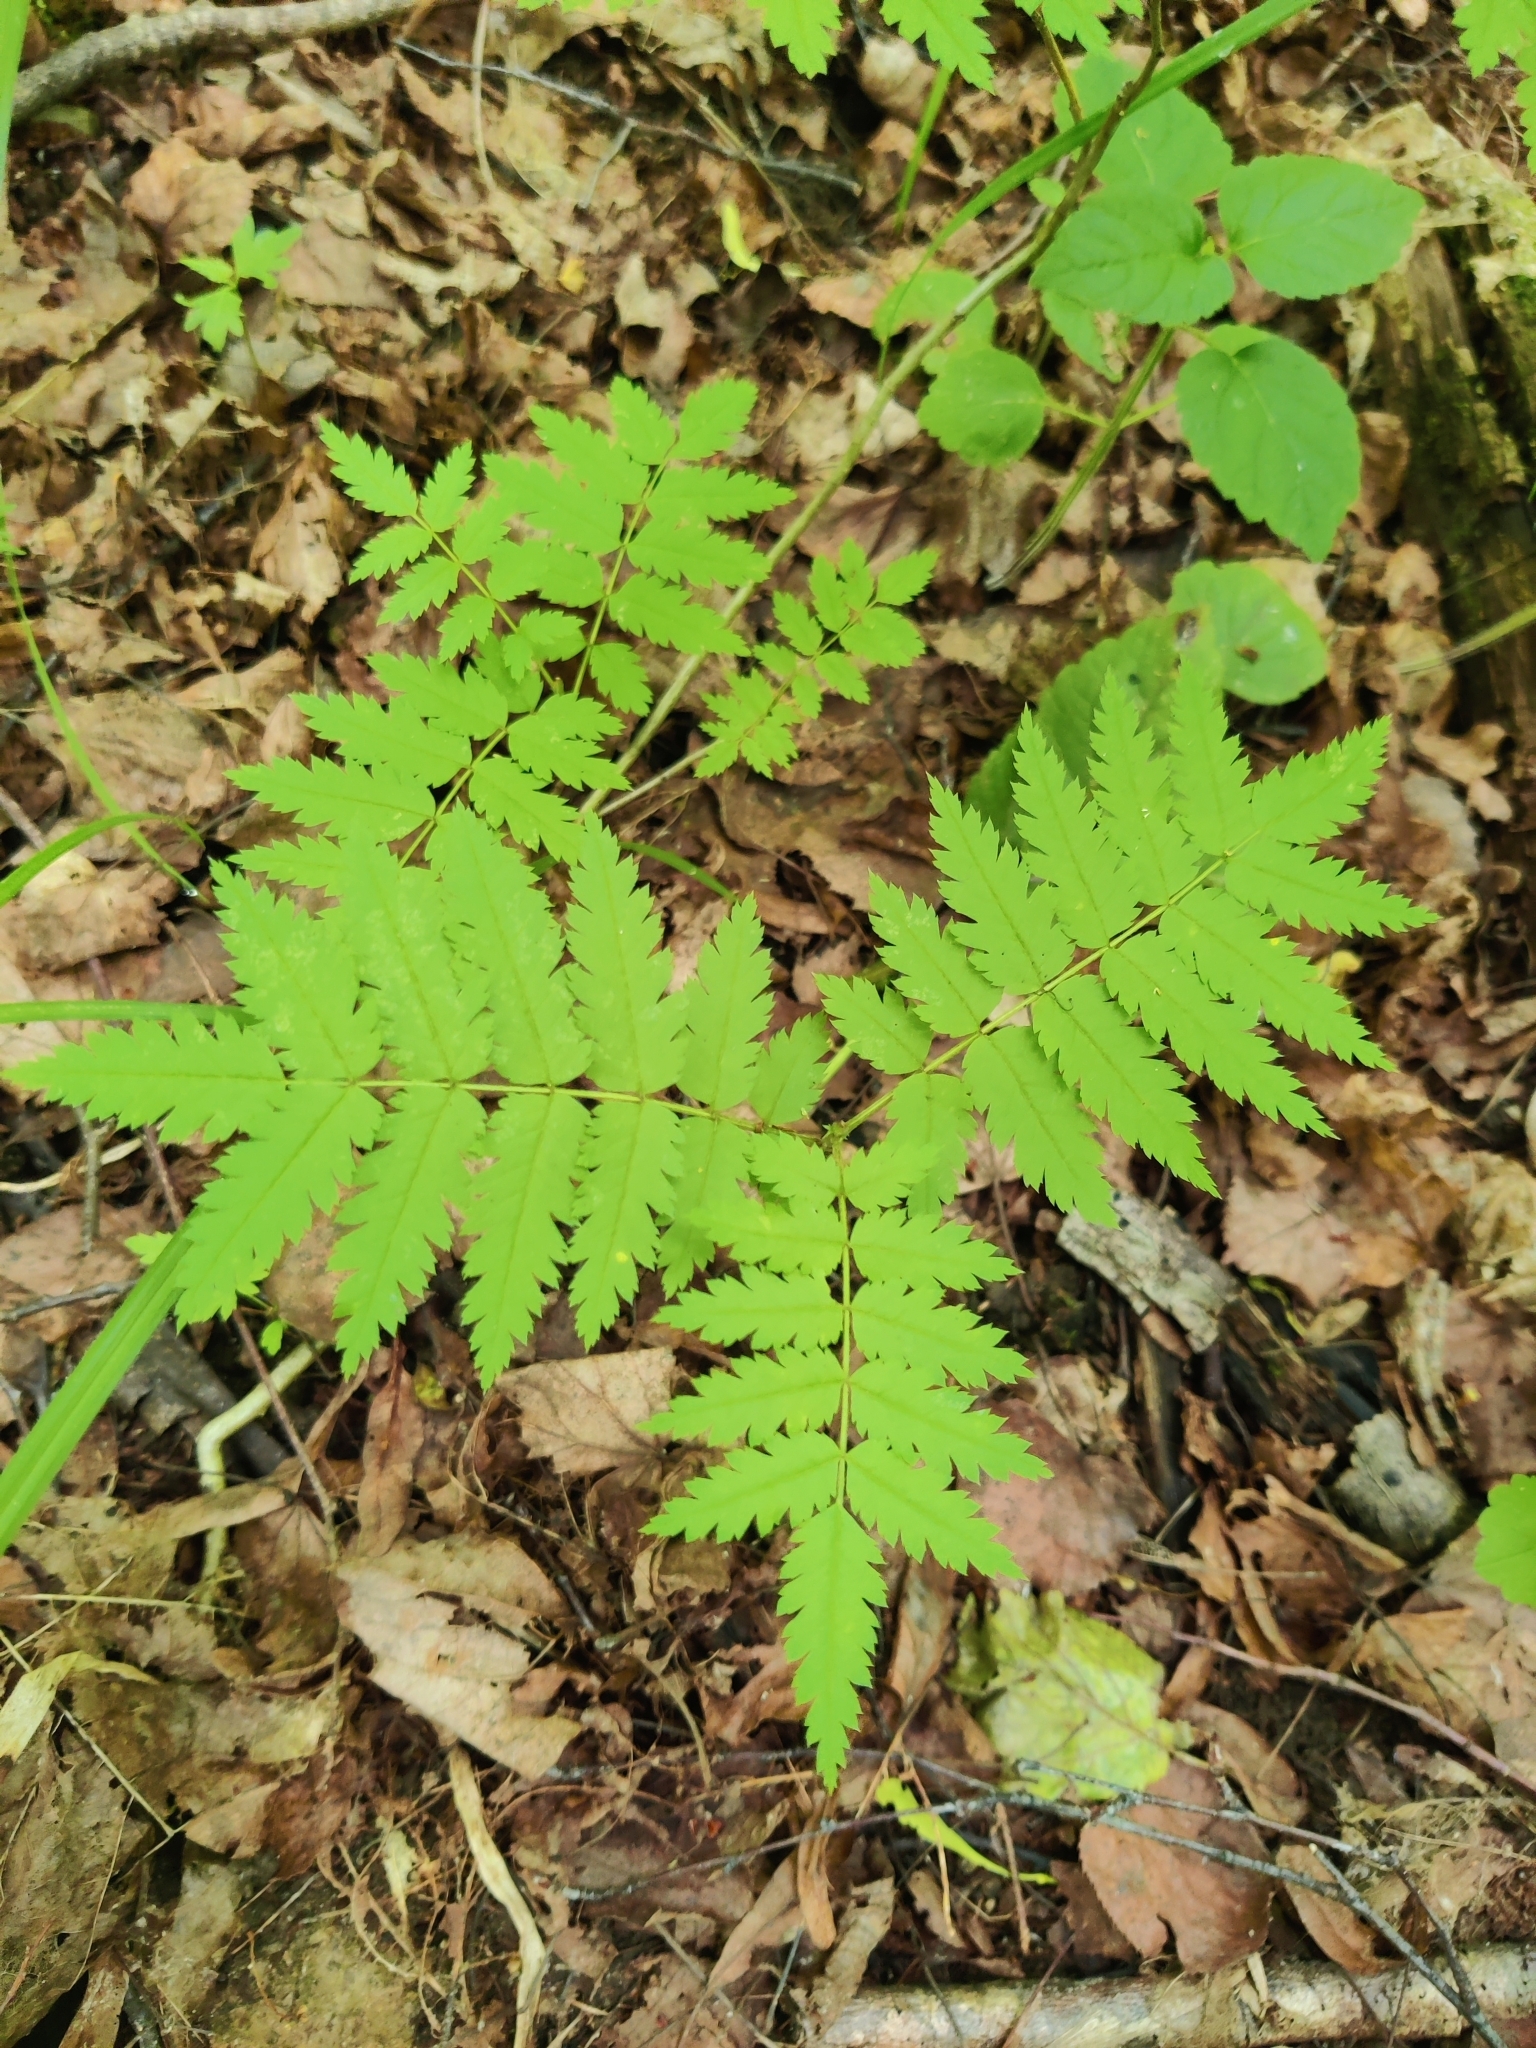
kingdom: Plantae
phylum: Tracheophyta
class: Magnoliopsida
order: Rosales
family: Rosaceae
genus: Sorbus
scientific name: Sorbus aucuparia
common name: Rowan
